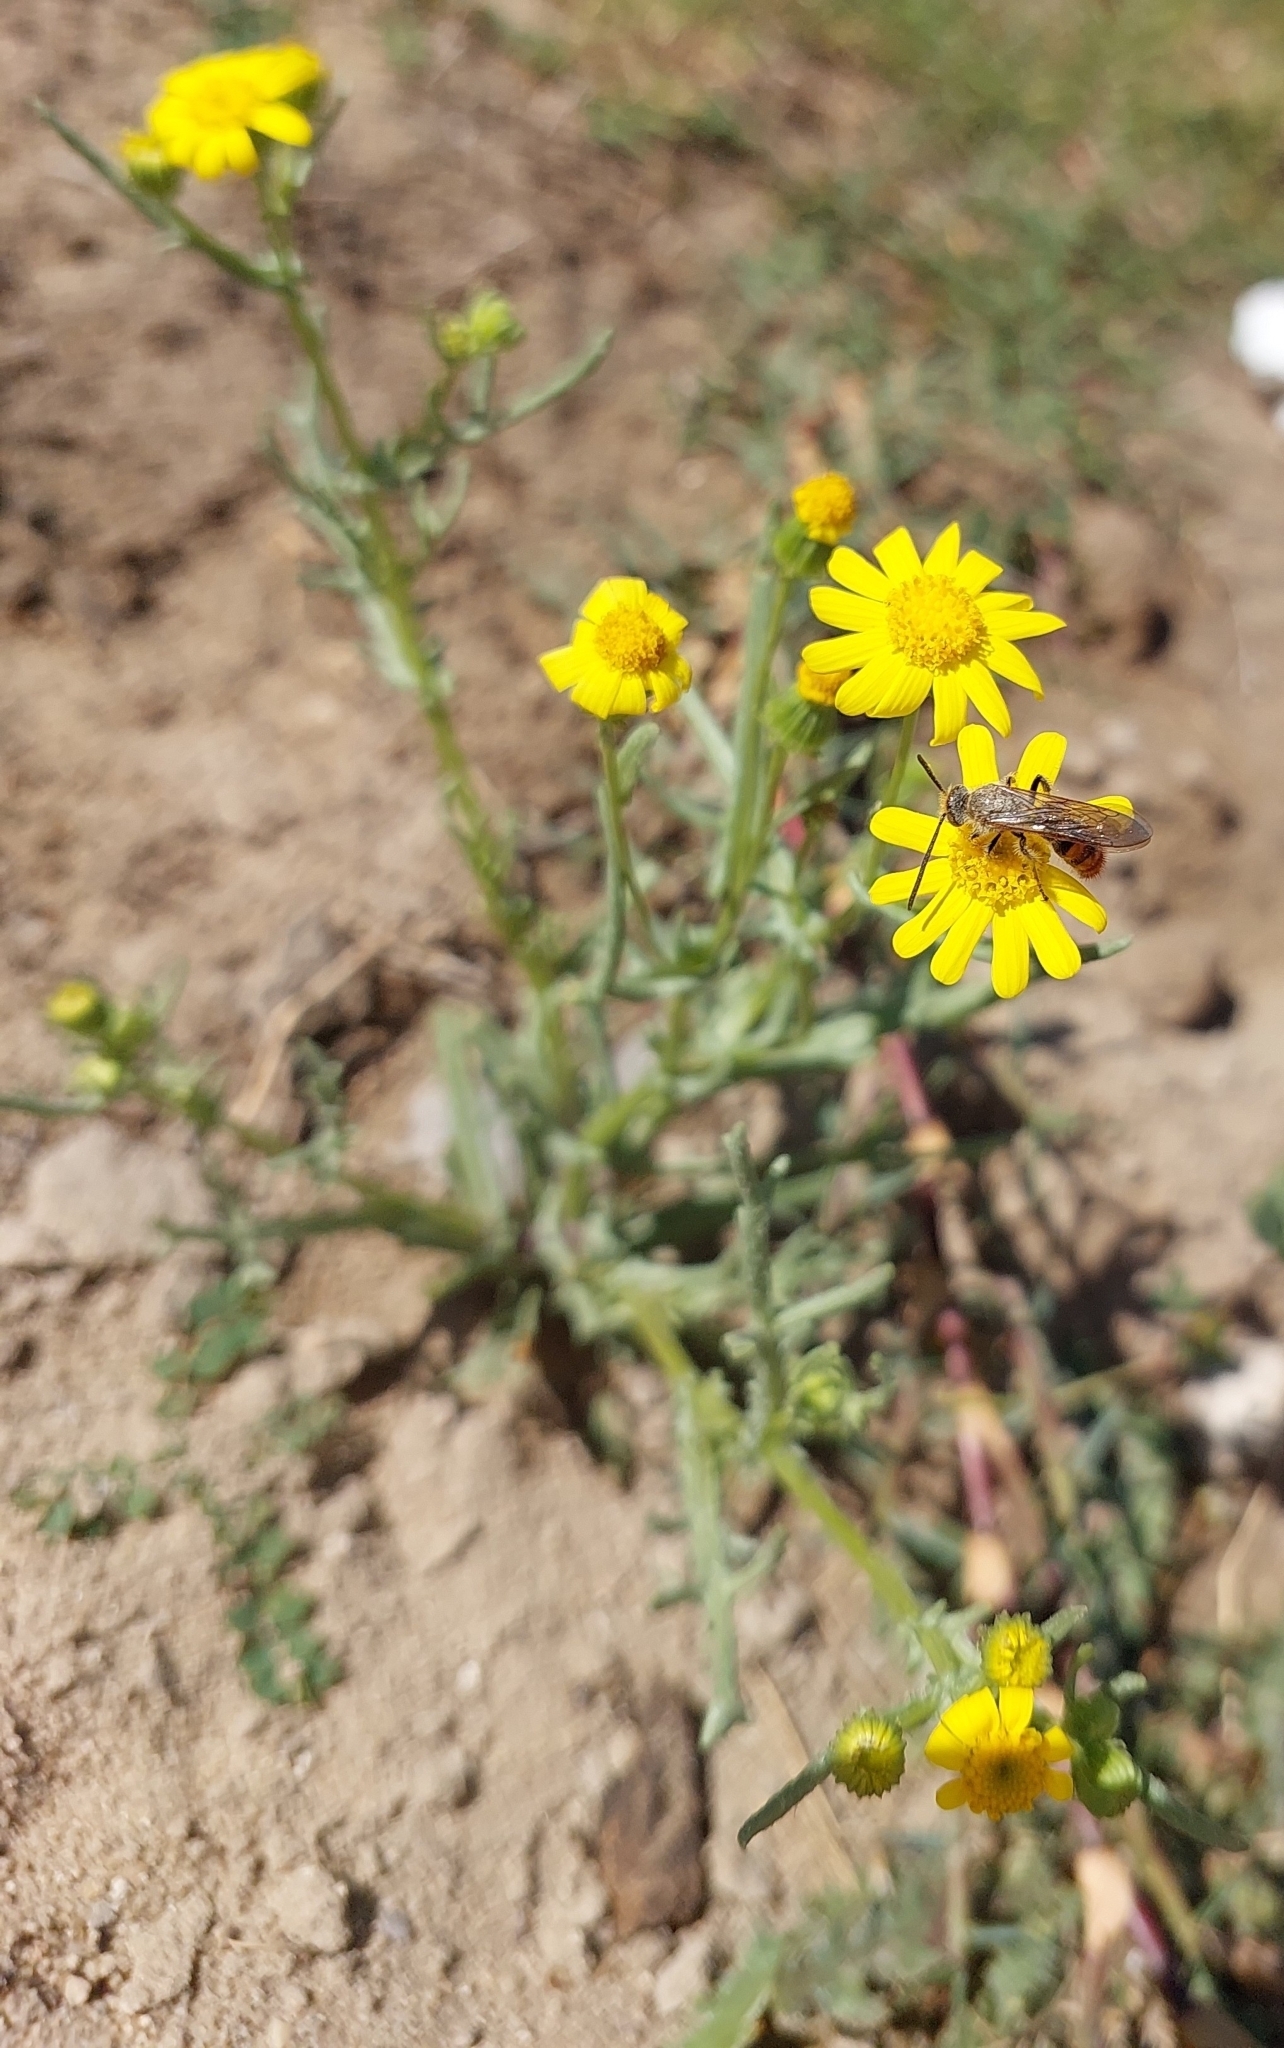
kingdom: Animalia
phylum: Arthropoda
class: Insecta
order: Hymenoptera
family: Scoliidae
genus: Campsomeriella
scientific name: Campsomeriella thoracica
